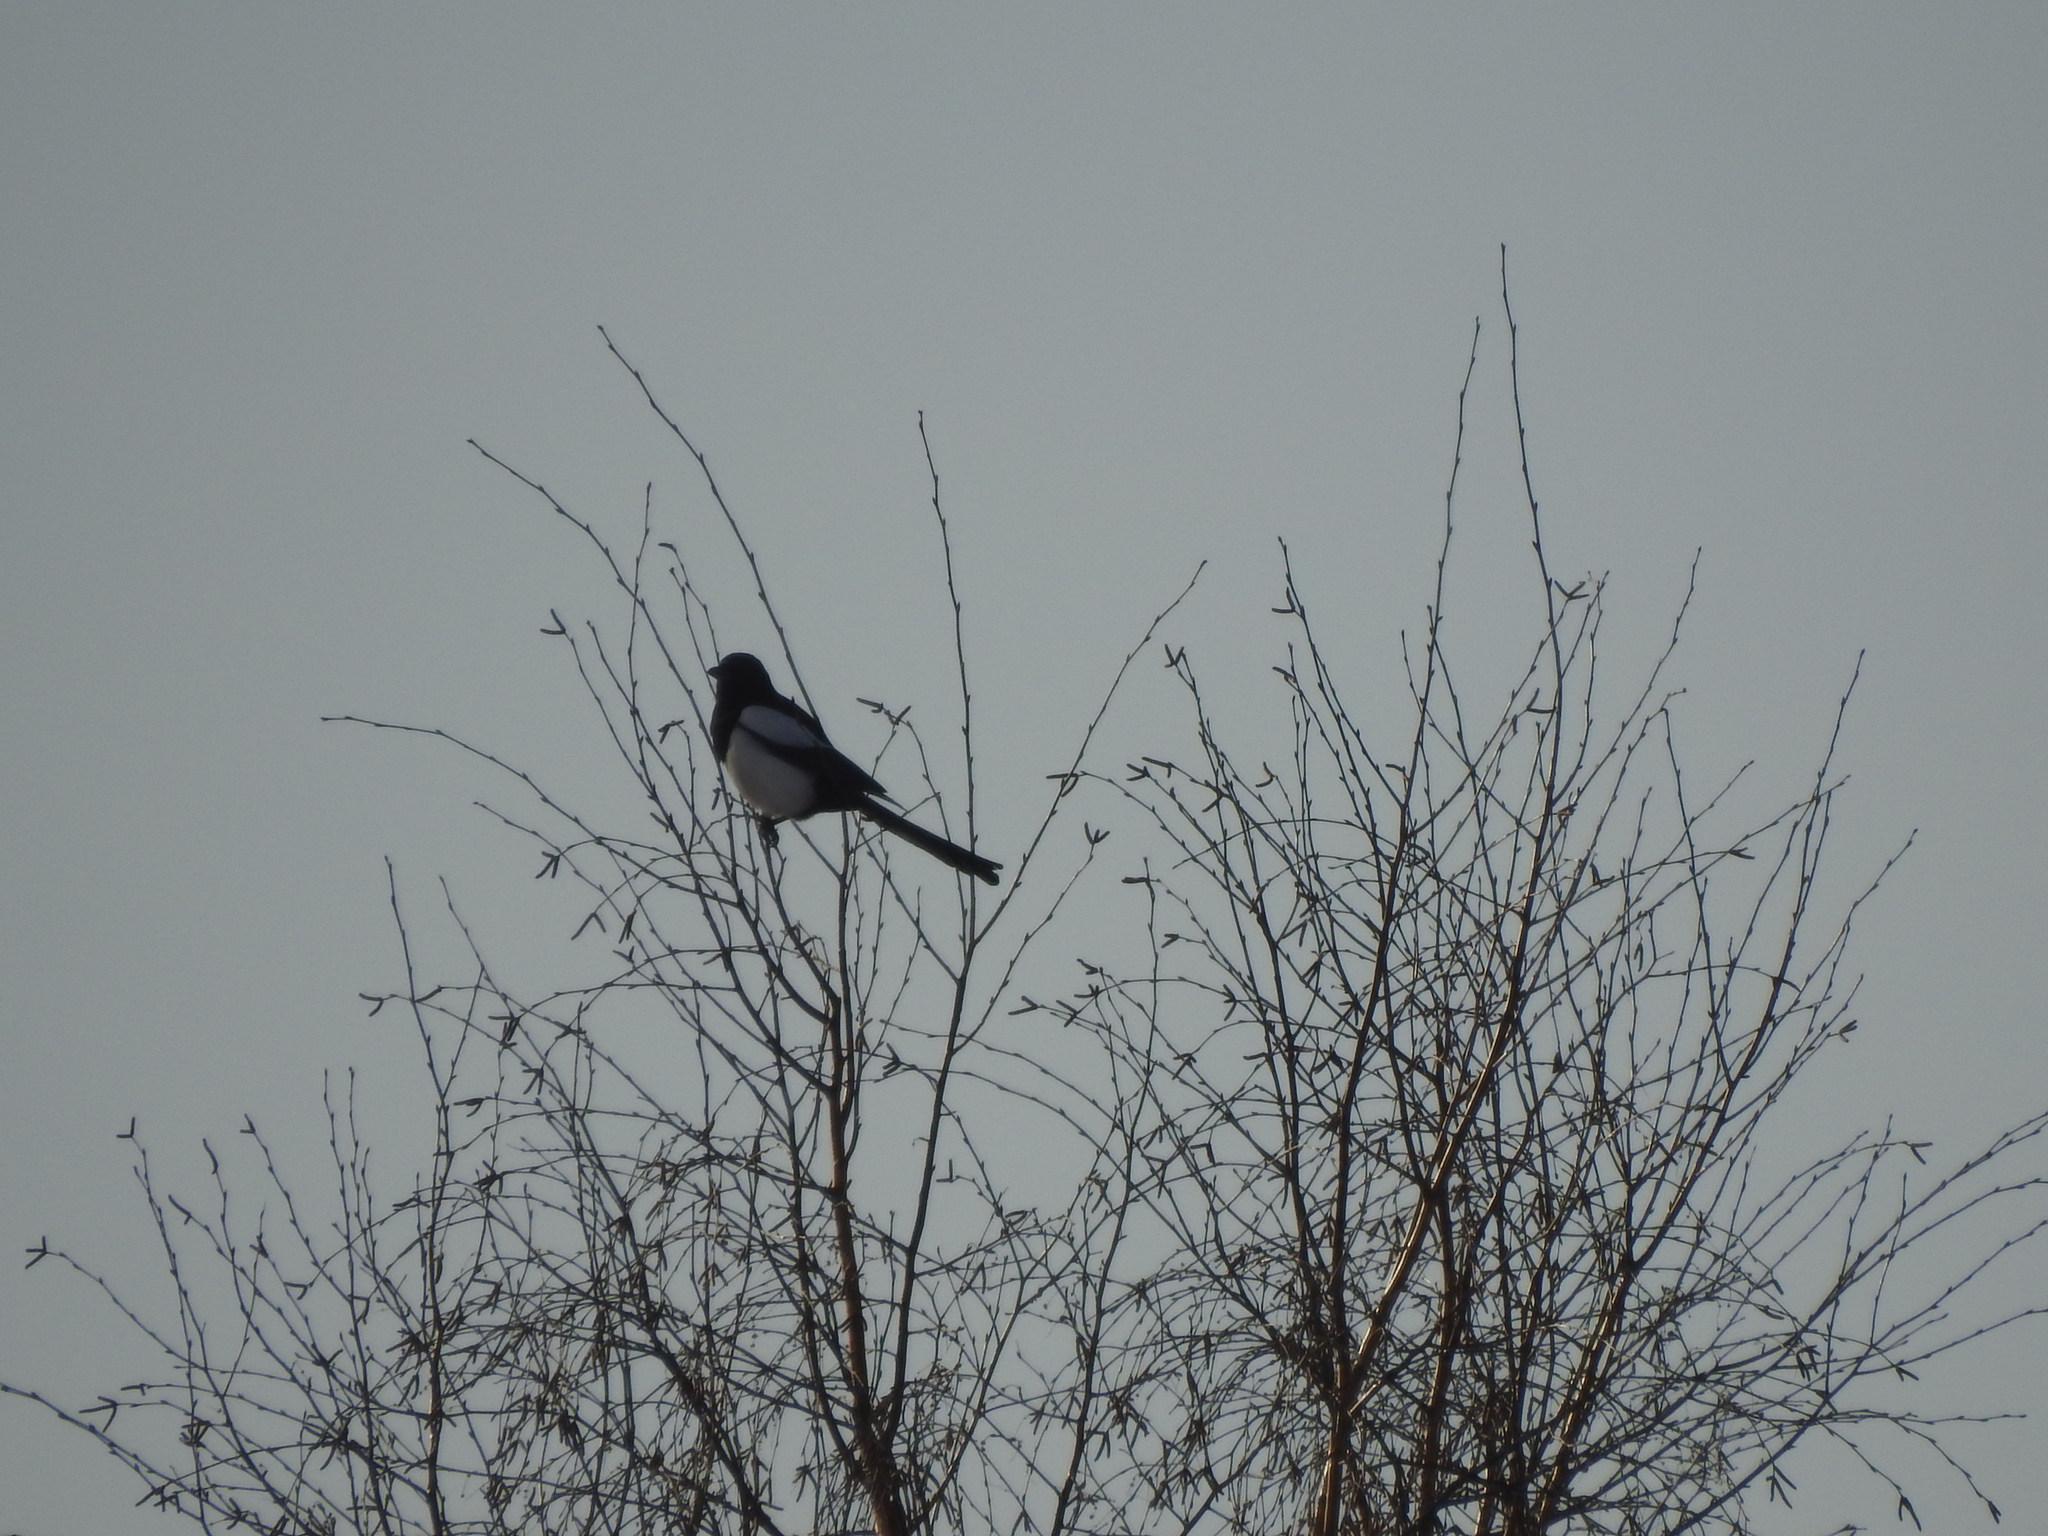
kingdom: Animalia
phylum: Chordata
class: Aves
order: Passeriformes
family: Corvidae
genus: Pica
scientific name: Pica pica
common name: Eurasian magpie
